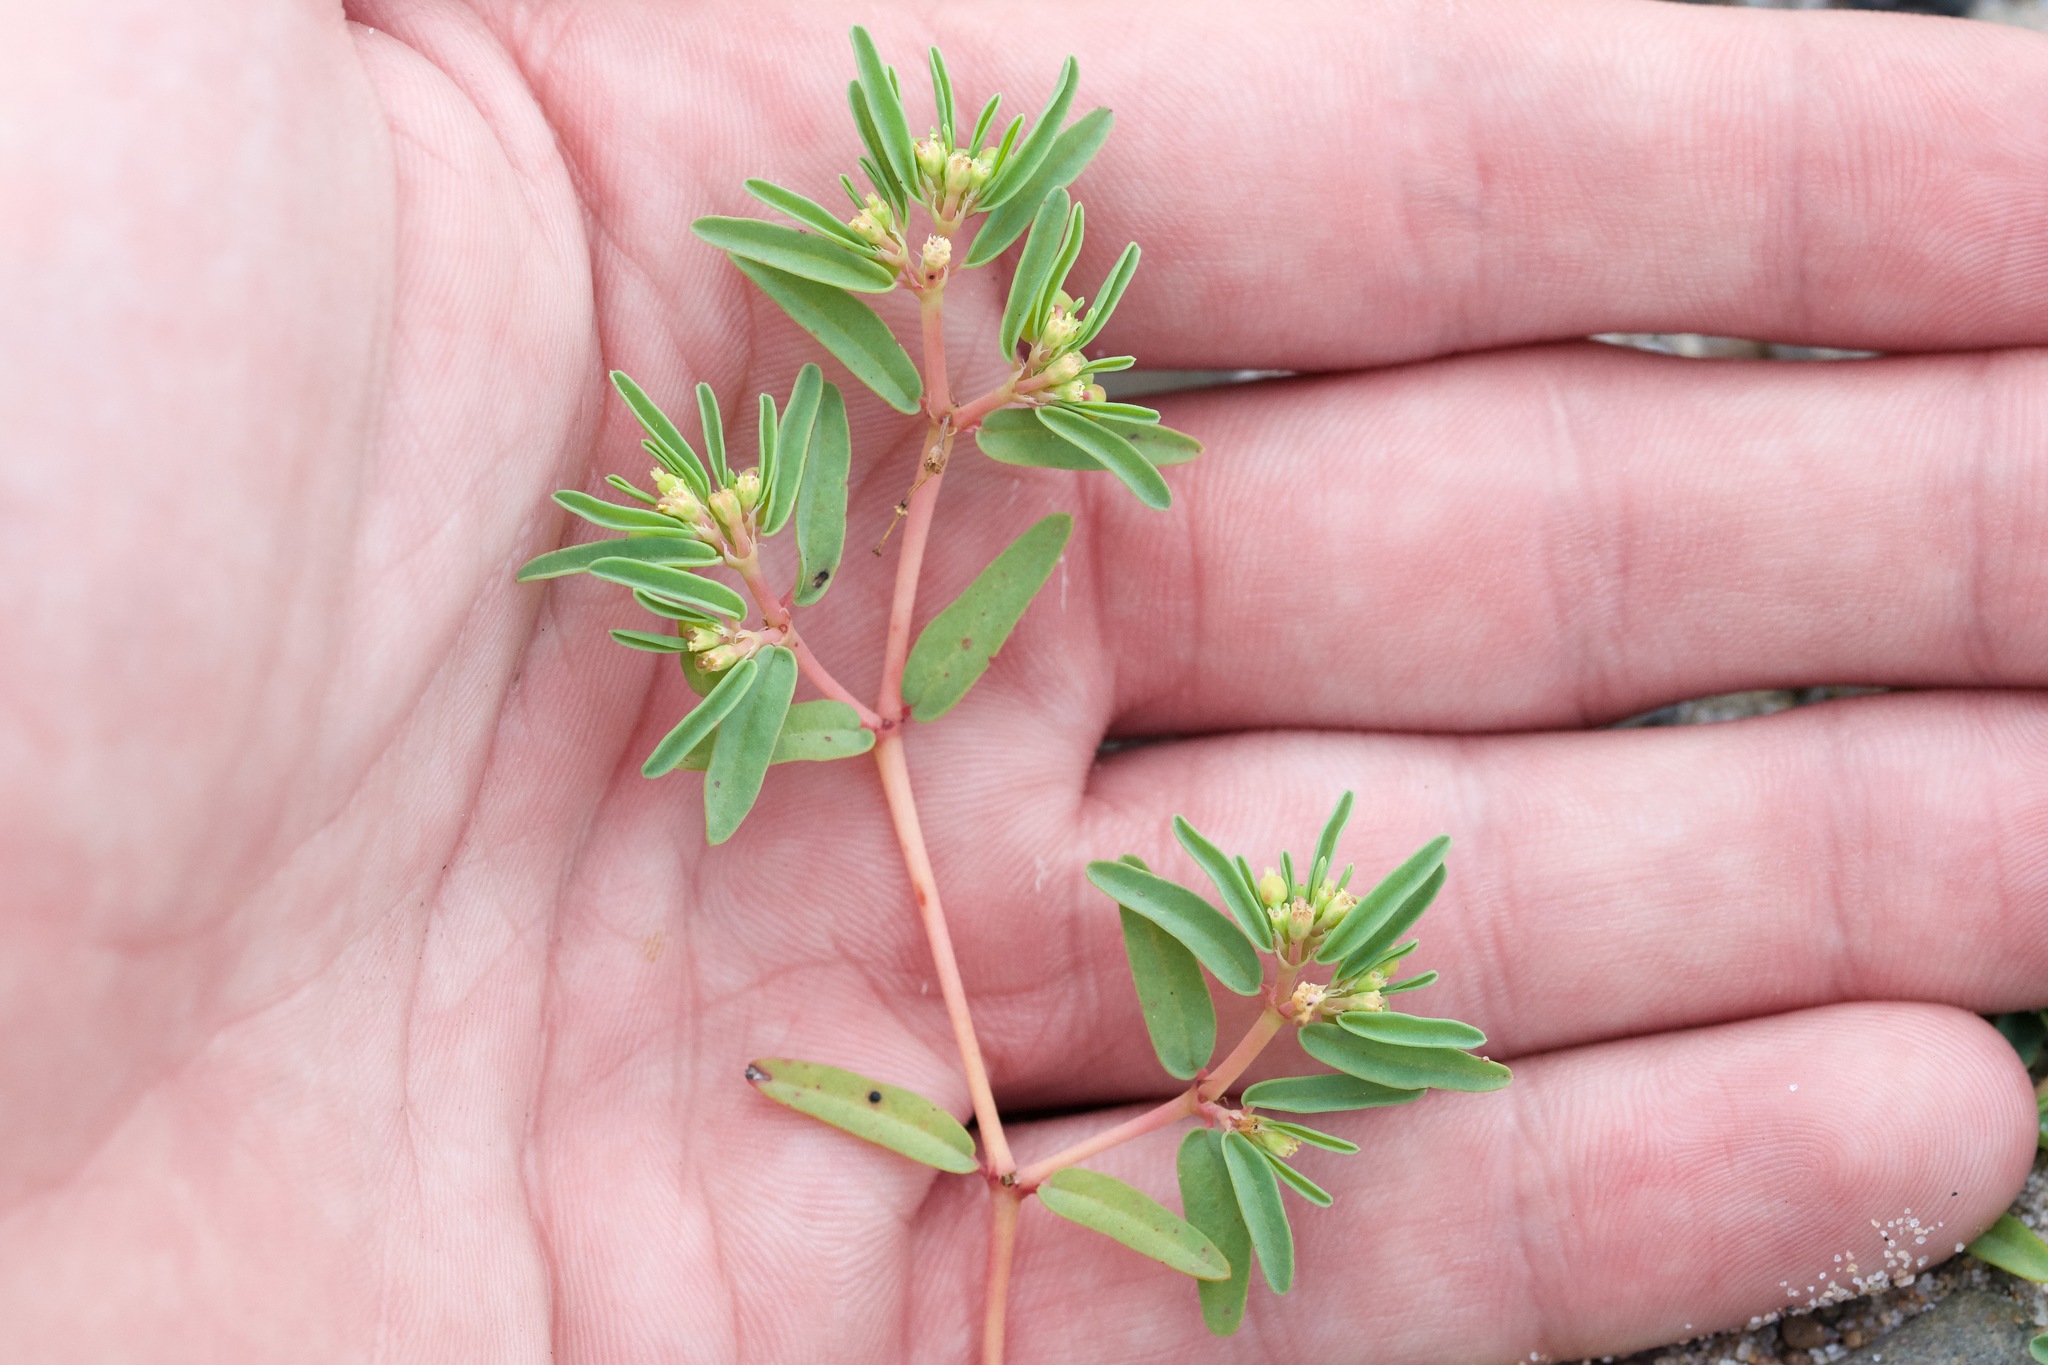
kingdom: Plantae
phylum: Tracheophyta
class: Magnoliopsida
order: Malpighiales
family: Euphorbiaceae
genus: Euphorbia
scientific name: Euphorbia polygonifolia
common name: Knotweed spurge
